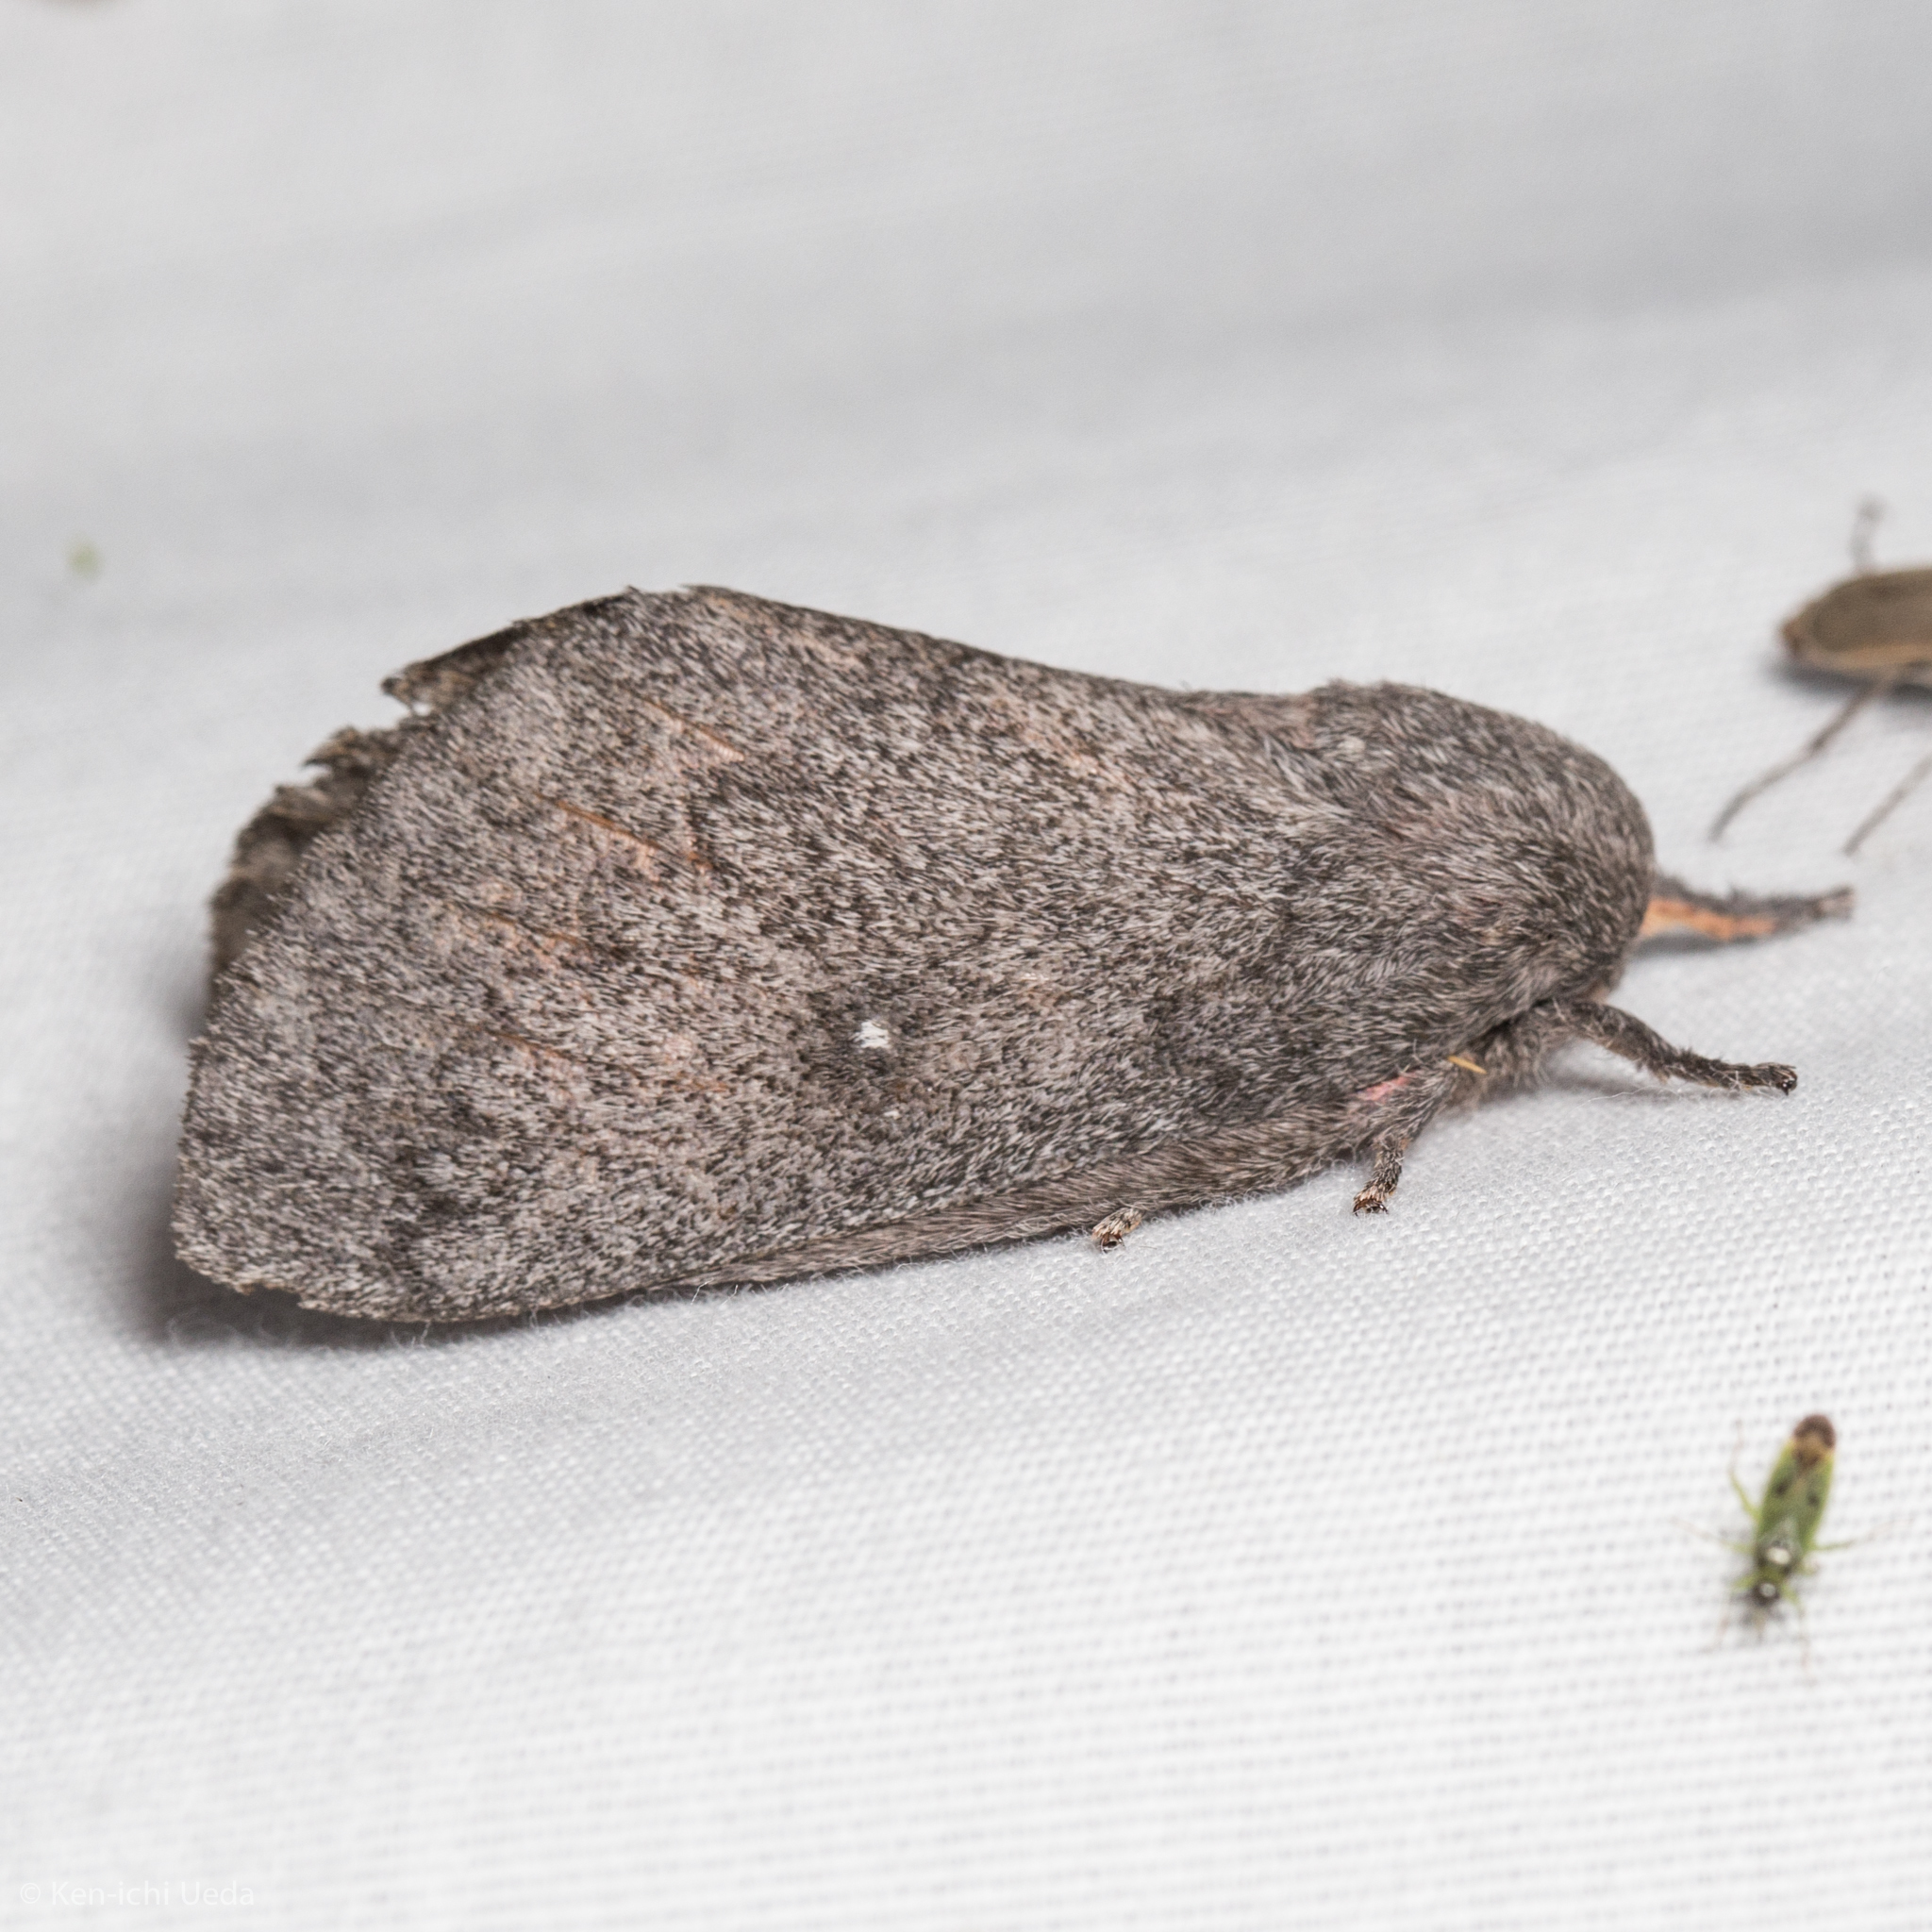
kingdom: Animalia
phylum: Arthropoda
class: Insecta
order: Lepidoptera
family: Saturniidae
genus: Syssphinx
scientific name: Syssphinx hubbardi
